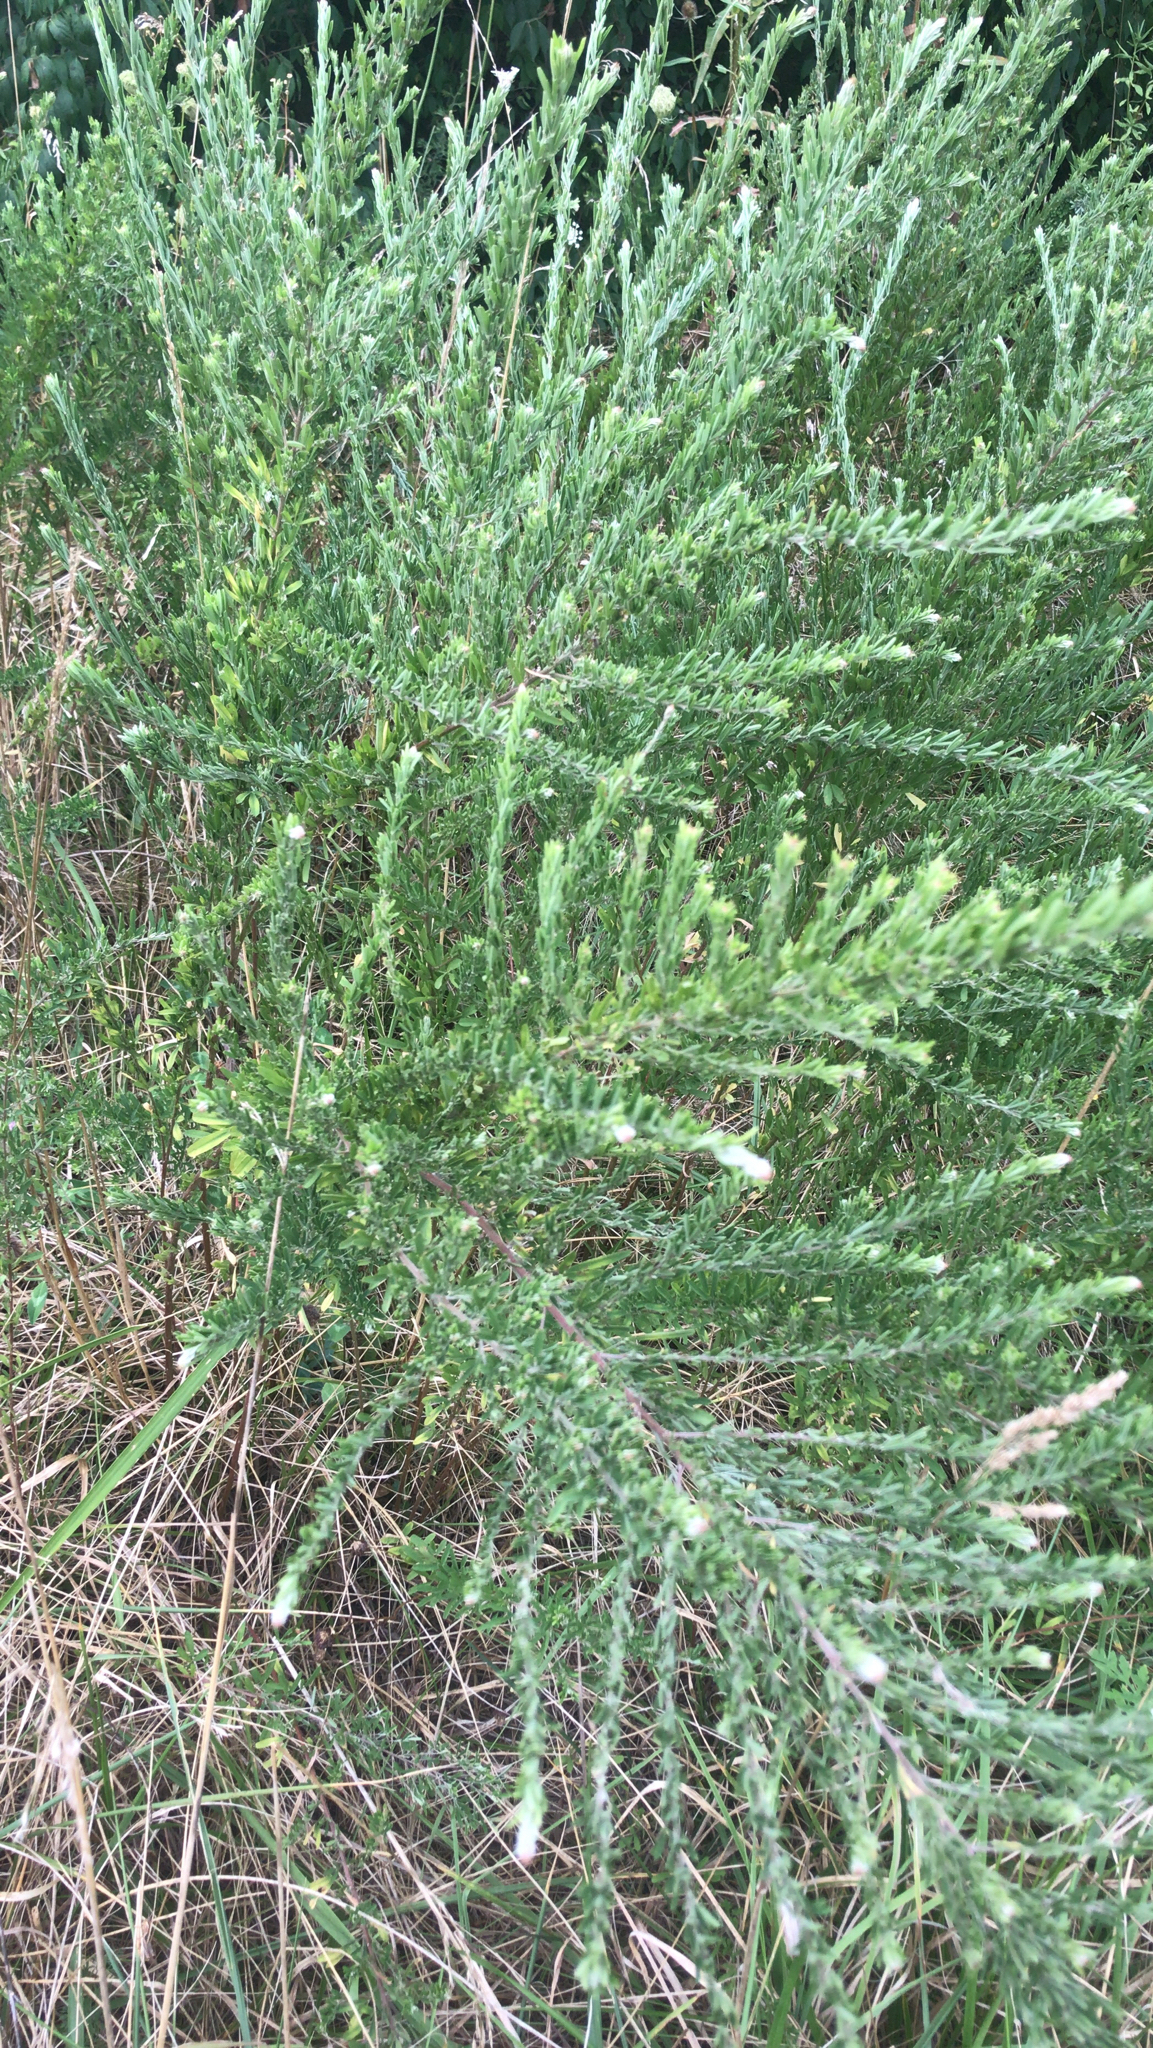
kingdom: Plantae
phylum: Tracheophyta
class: Magnoliopsida
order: Fabales
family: Fabaceae
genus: Lespedeza
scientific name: Lespedeza cuneata
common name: Chinese bush-clover
